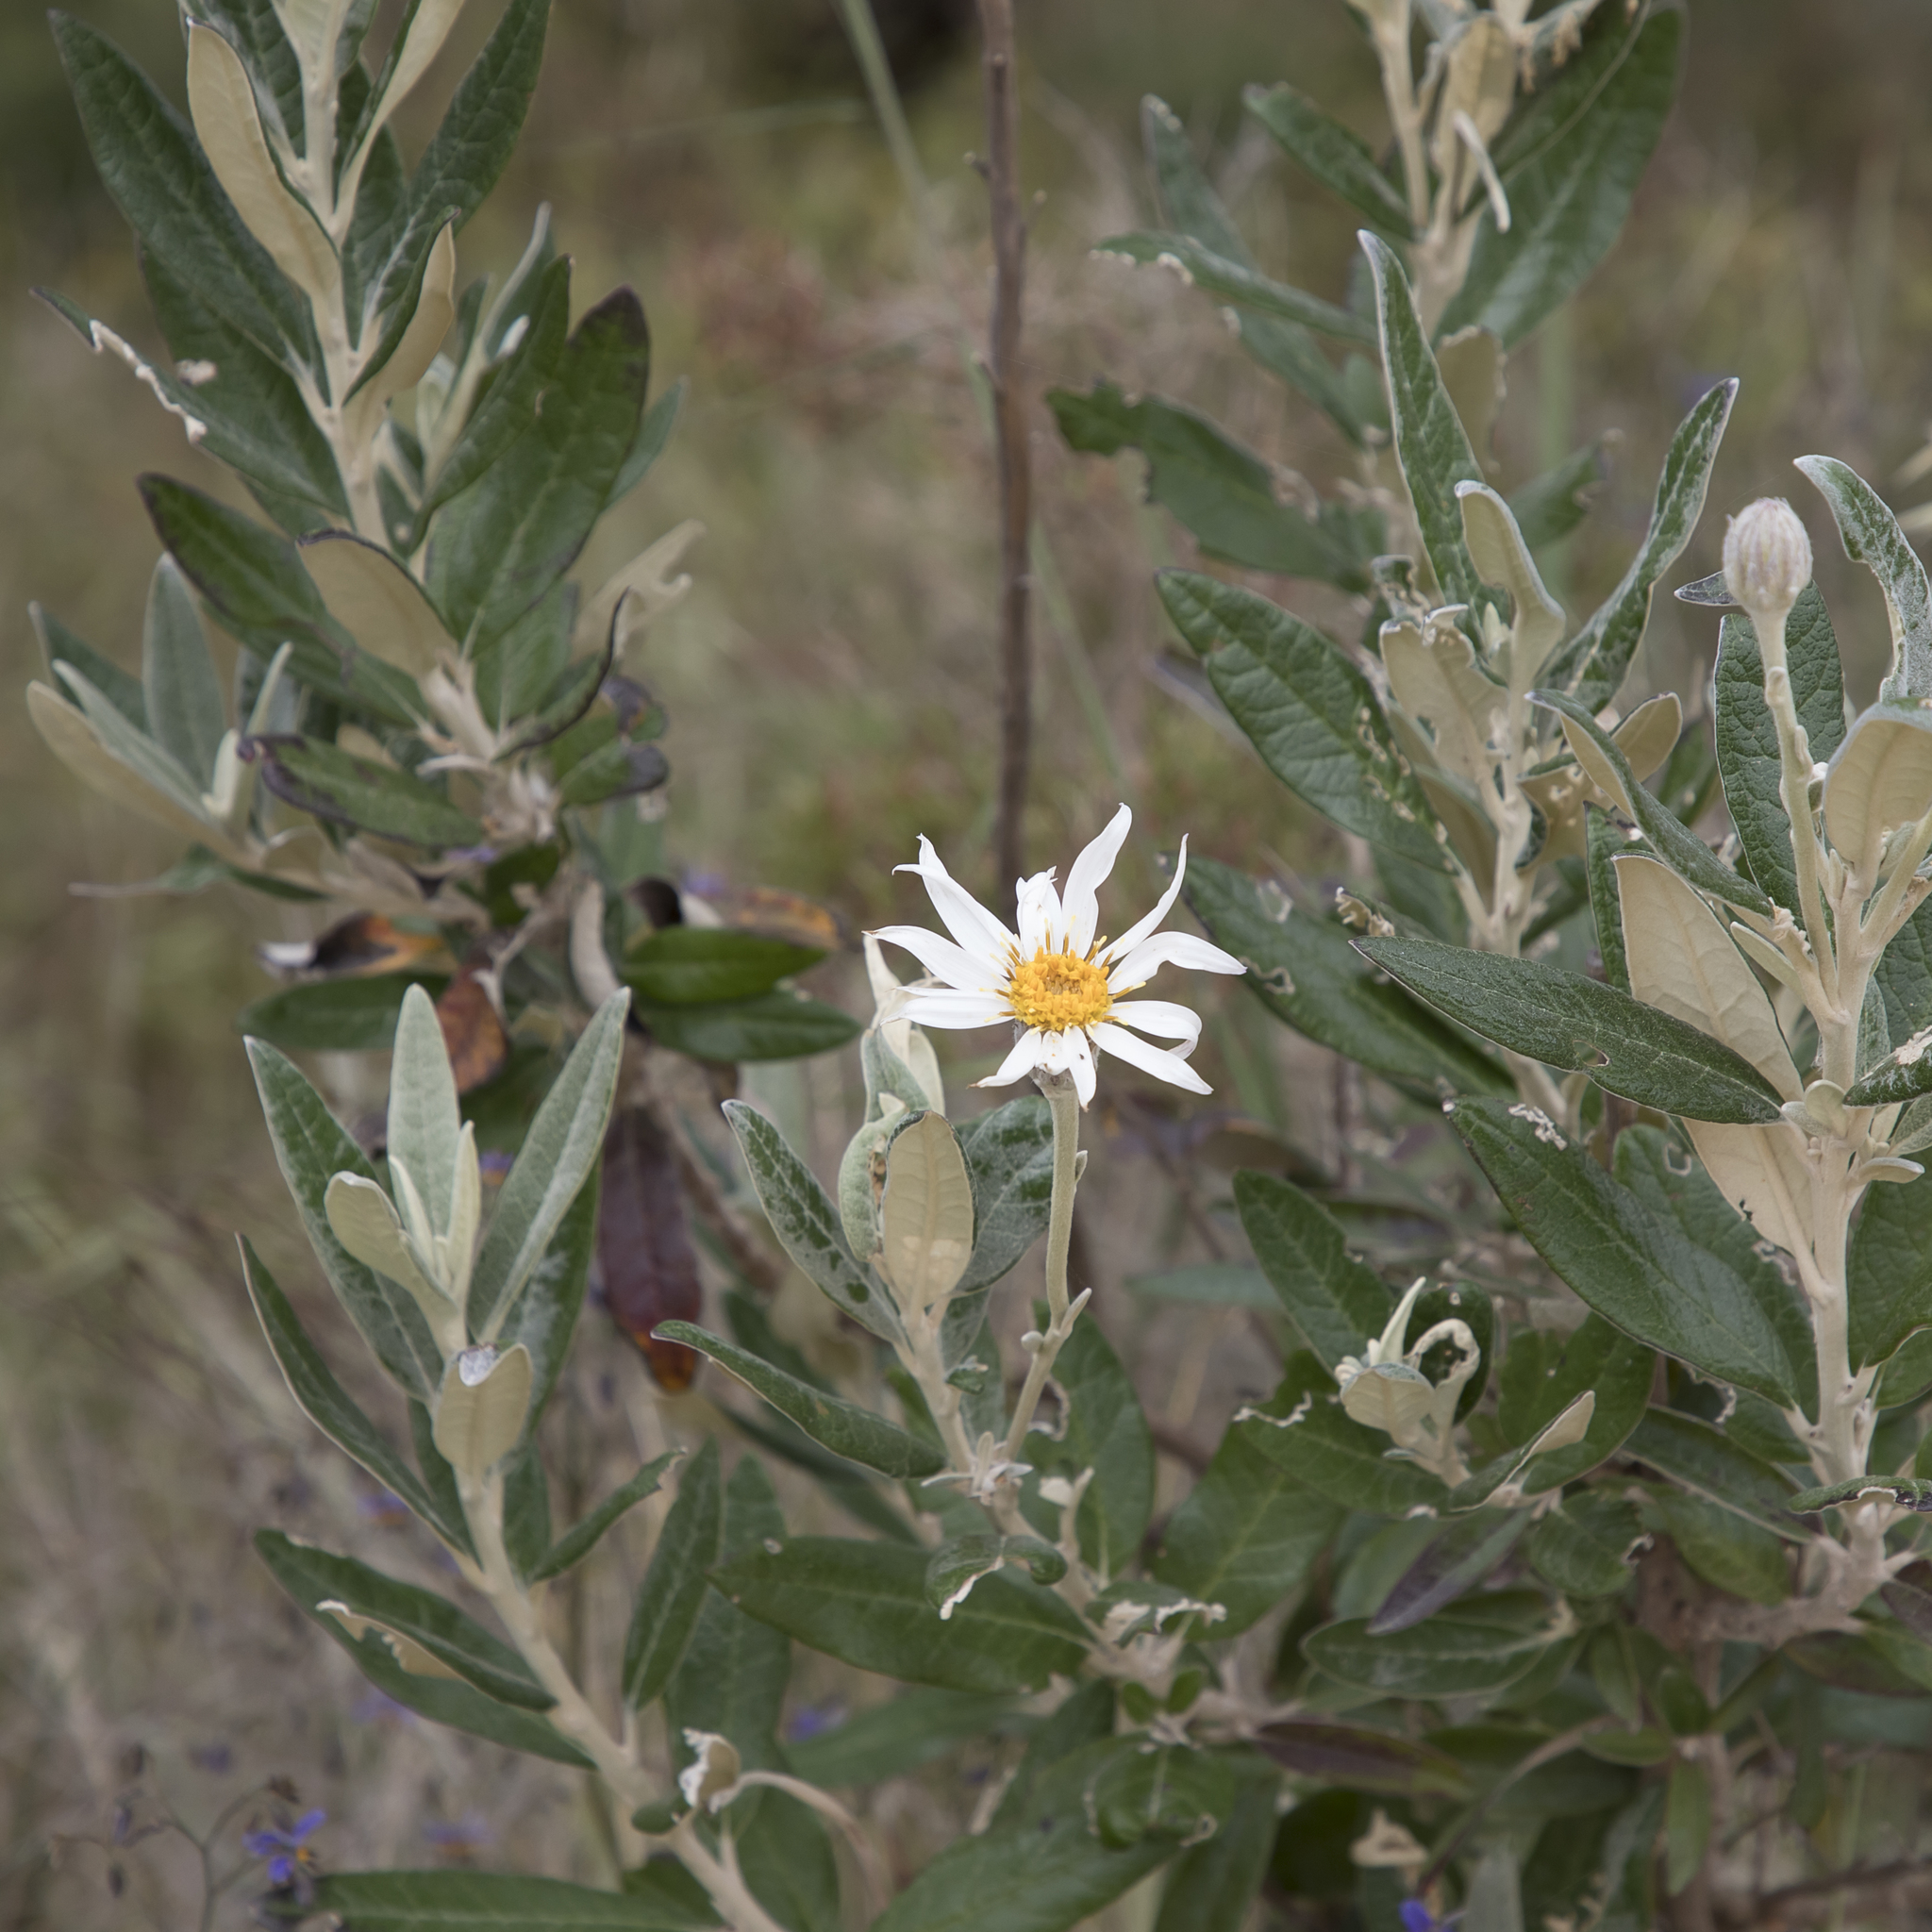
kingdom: Plantae
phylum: Tracheophyta
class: Magnoliopsida
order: Asterales
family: Asteraceae
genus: Olearia
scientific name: Olearia pannosa
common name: Velvet daisybush
